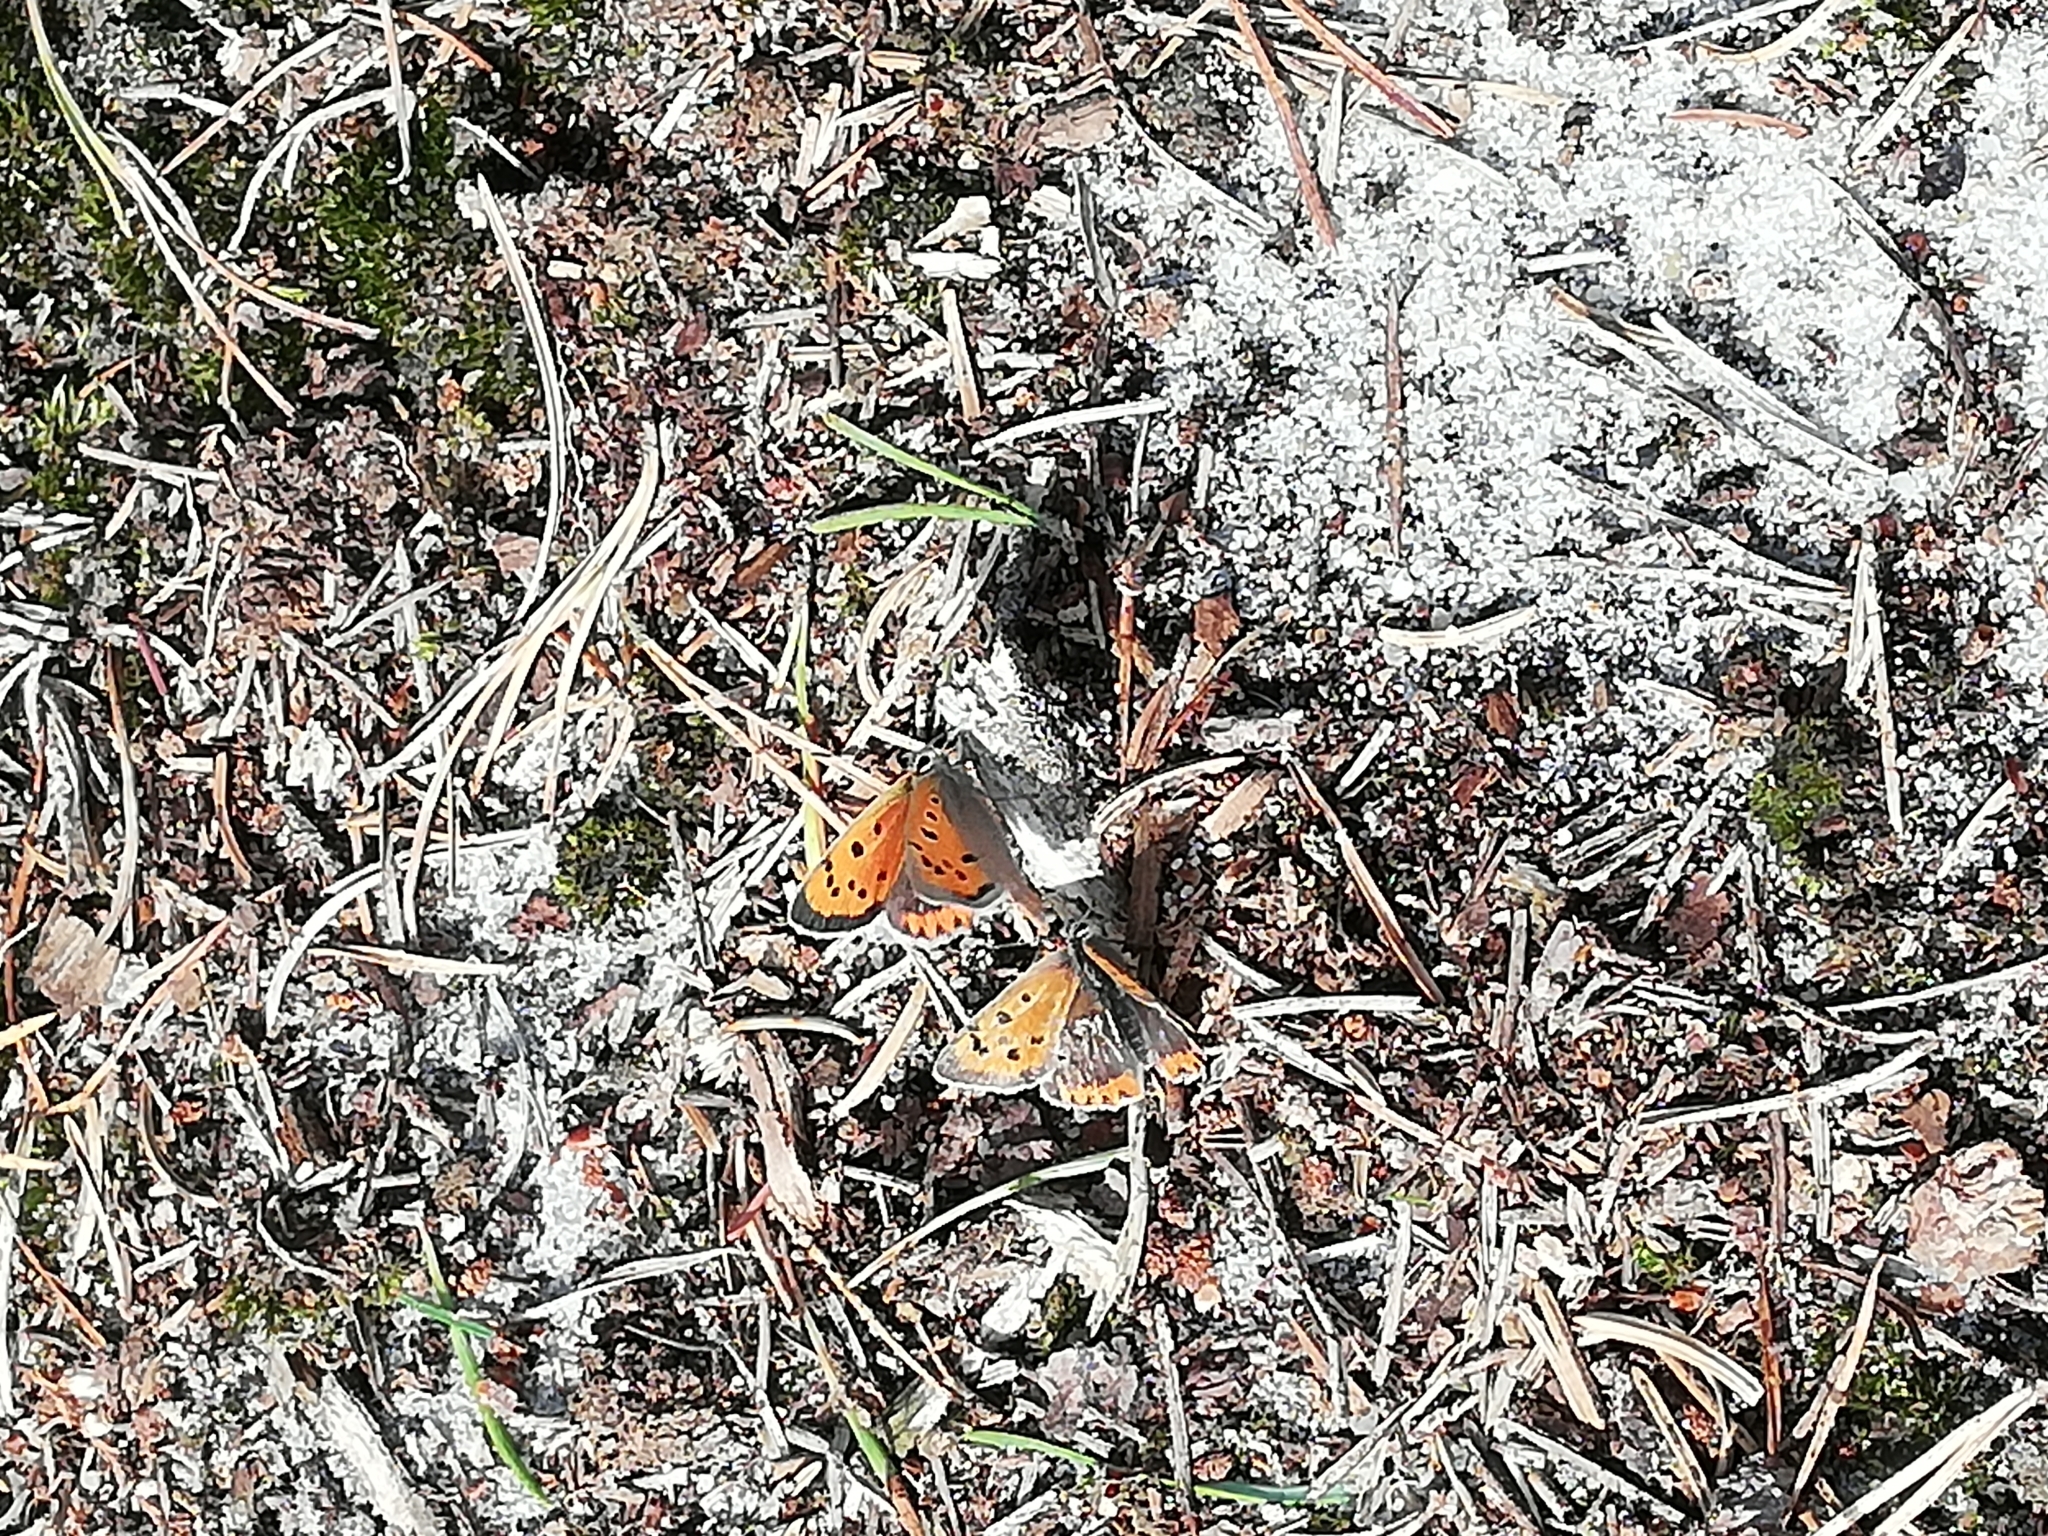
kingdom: Animalia
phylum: Arthropoda
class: Insecta
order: Lepidoptera
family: Lycaenidae
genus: Lycaena
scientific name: Lycaena phlaeas
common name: Small copper
